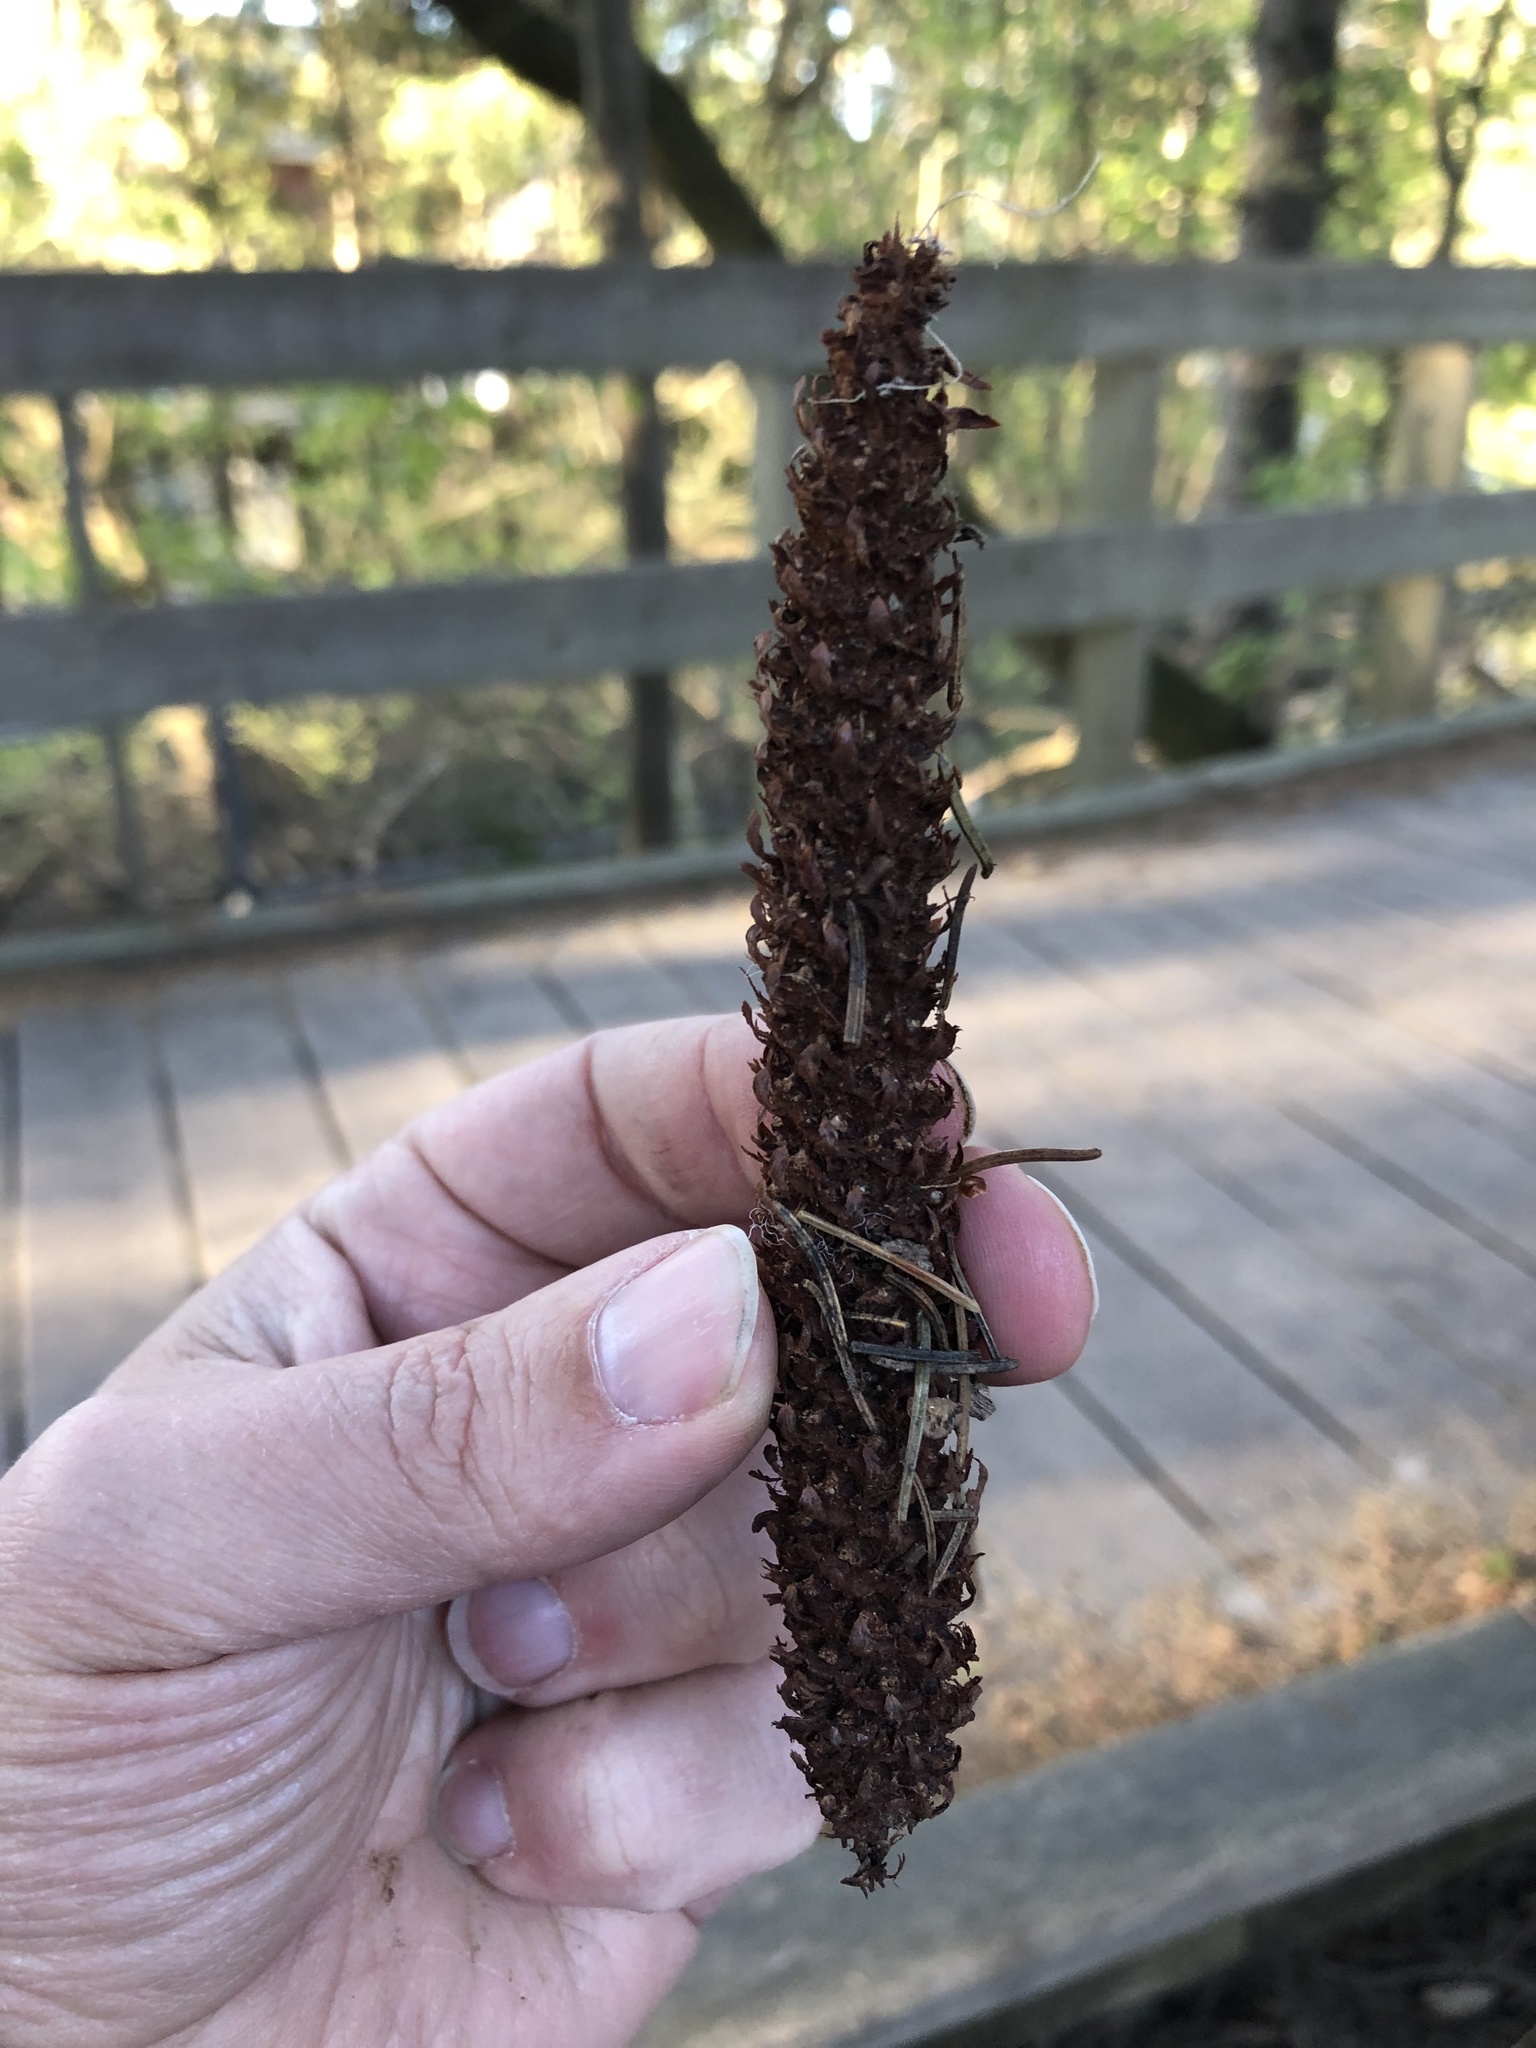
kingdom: Plantae
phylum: Tracheophyta
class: Pinopsida
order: Pinales
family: Pinaceae
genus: Picea
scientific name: Picea abies
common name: Norway spruce
